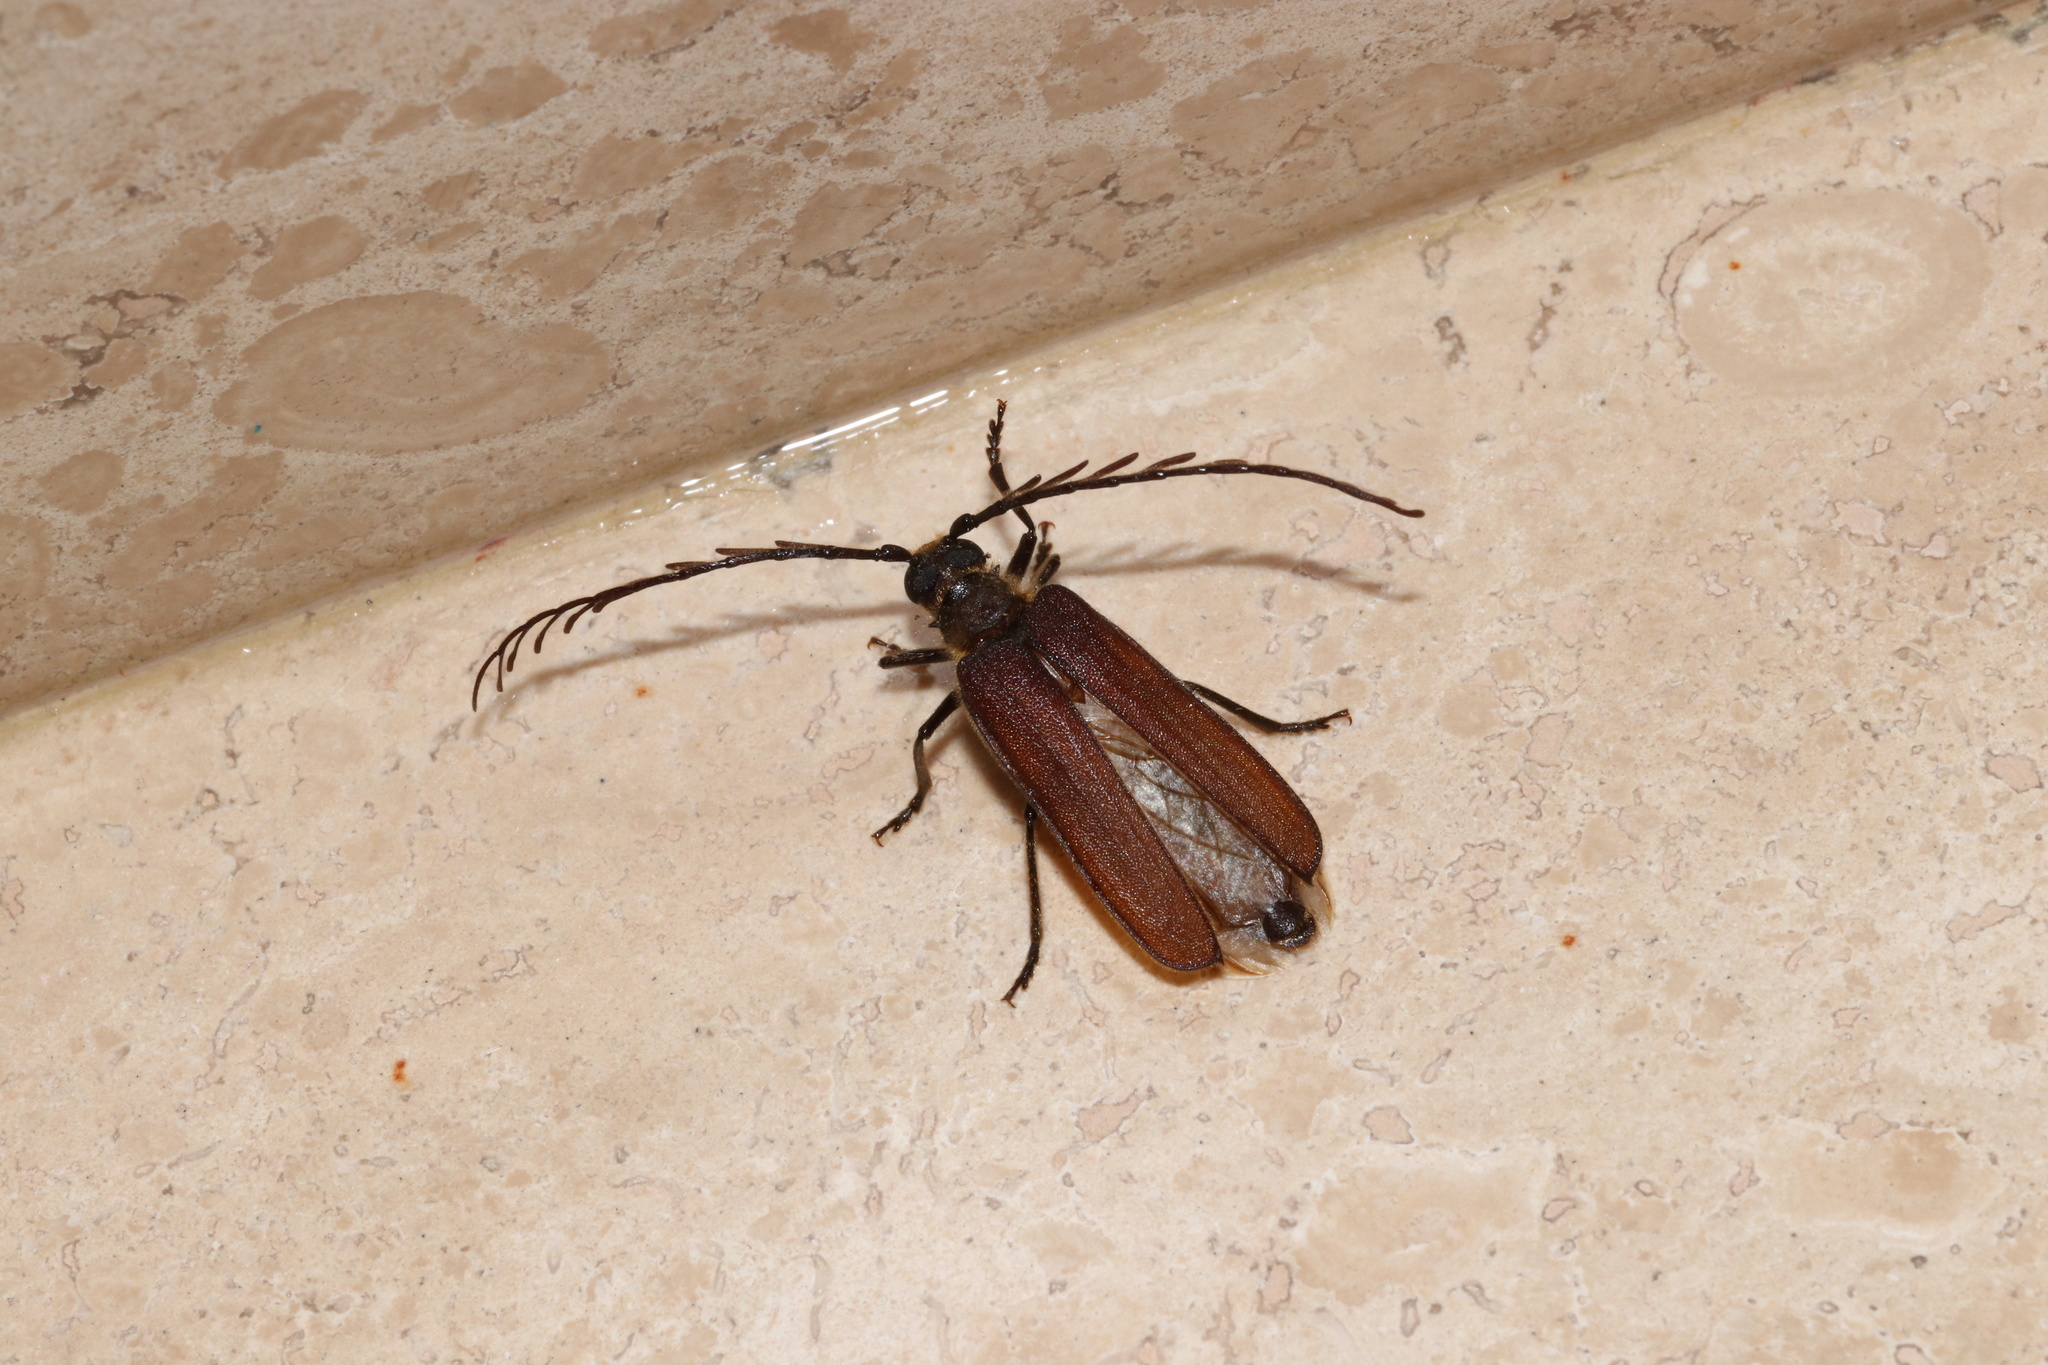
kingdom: Animalia
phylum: Arthropoda
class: Insecta
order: Coleoptera
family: Cerambycidae
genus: Microplophorus
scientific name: Microplophorus magellanicus
